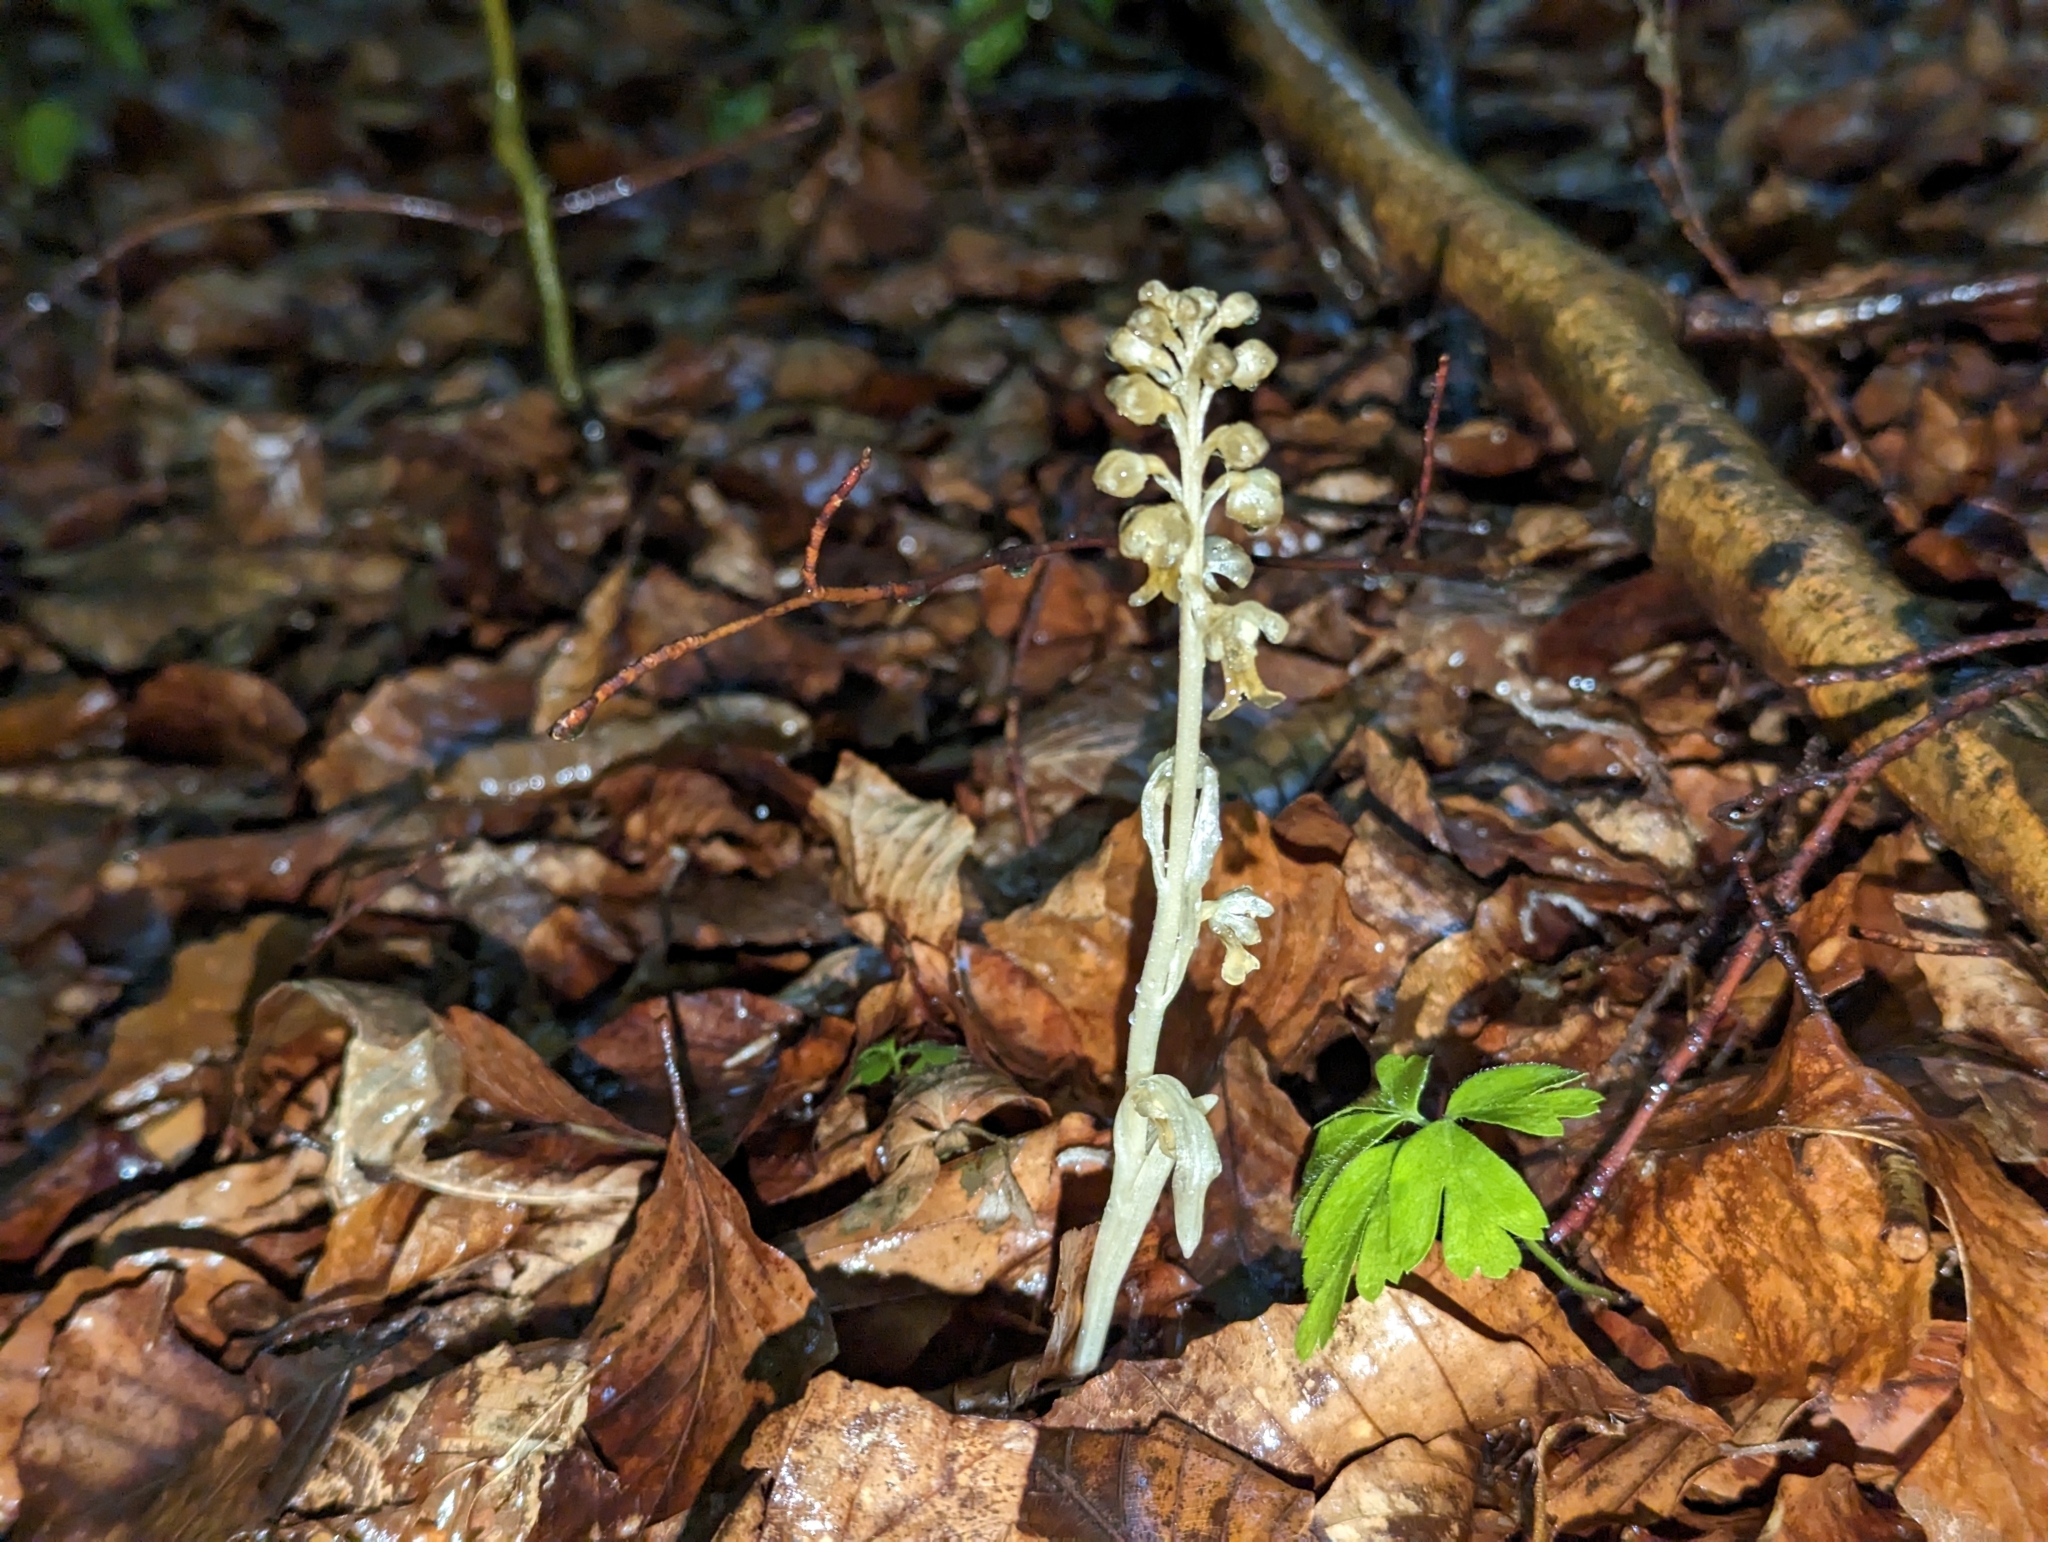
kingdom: Plantae
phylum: Tracheophyta
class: Liliopsida
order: Asparagales
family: Orchidaceae
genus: Neottia
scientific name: Neottia nidus-avis
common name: Bird's-nest orchid
